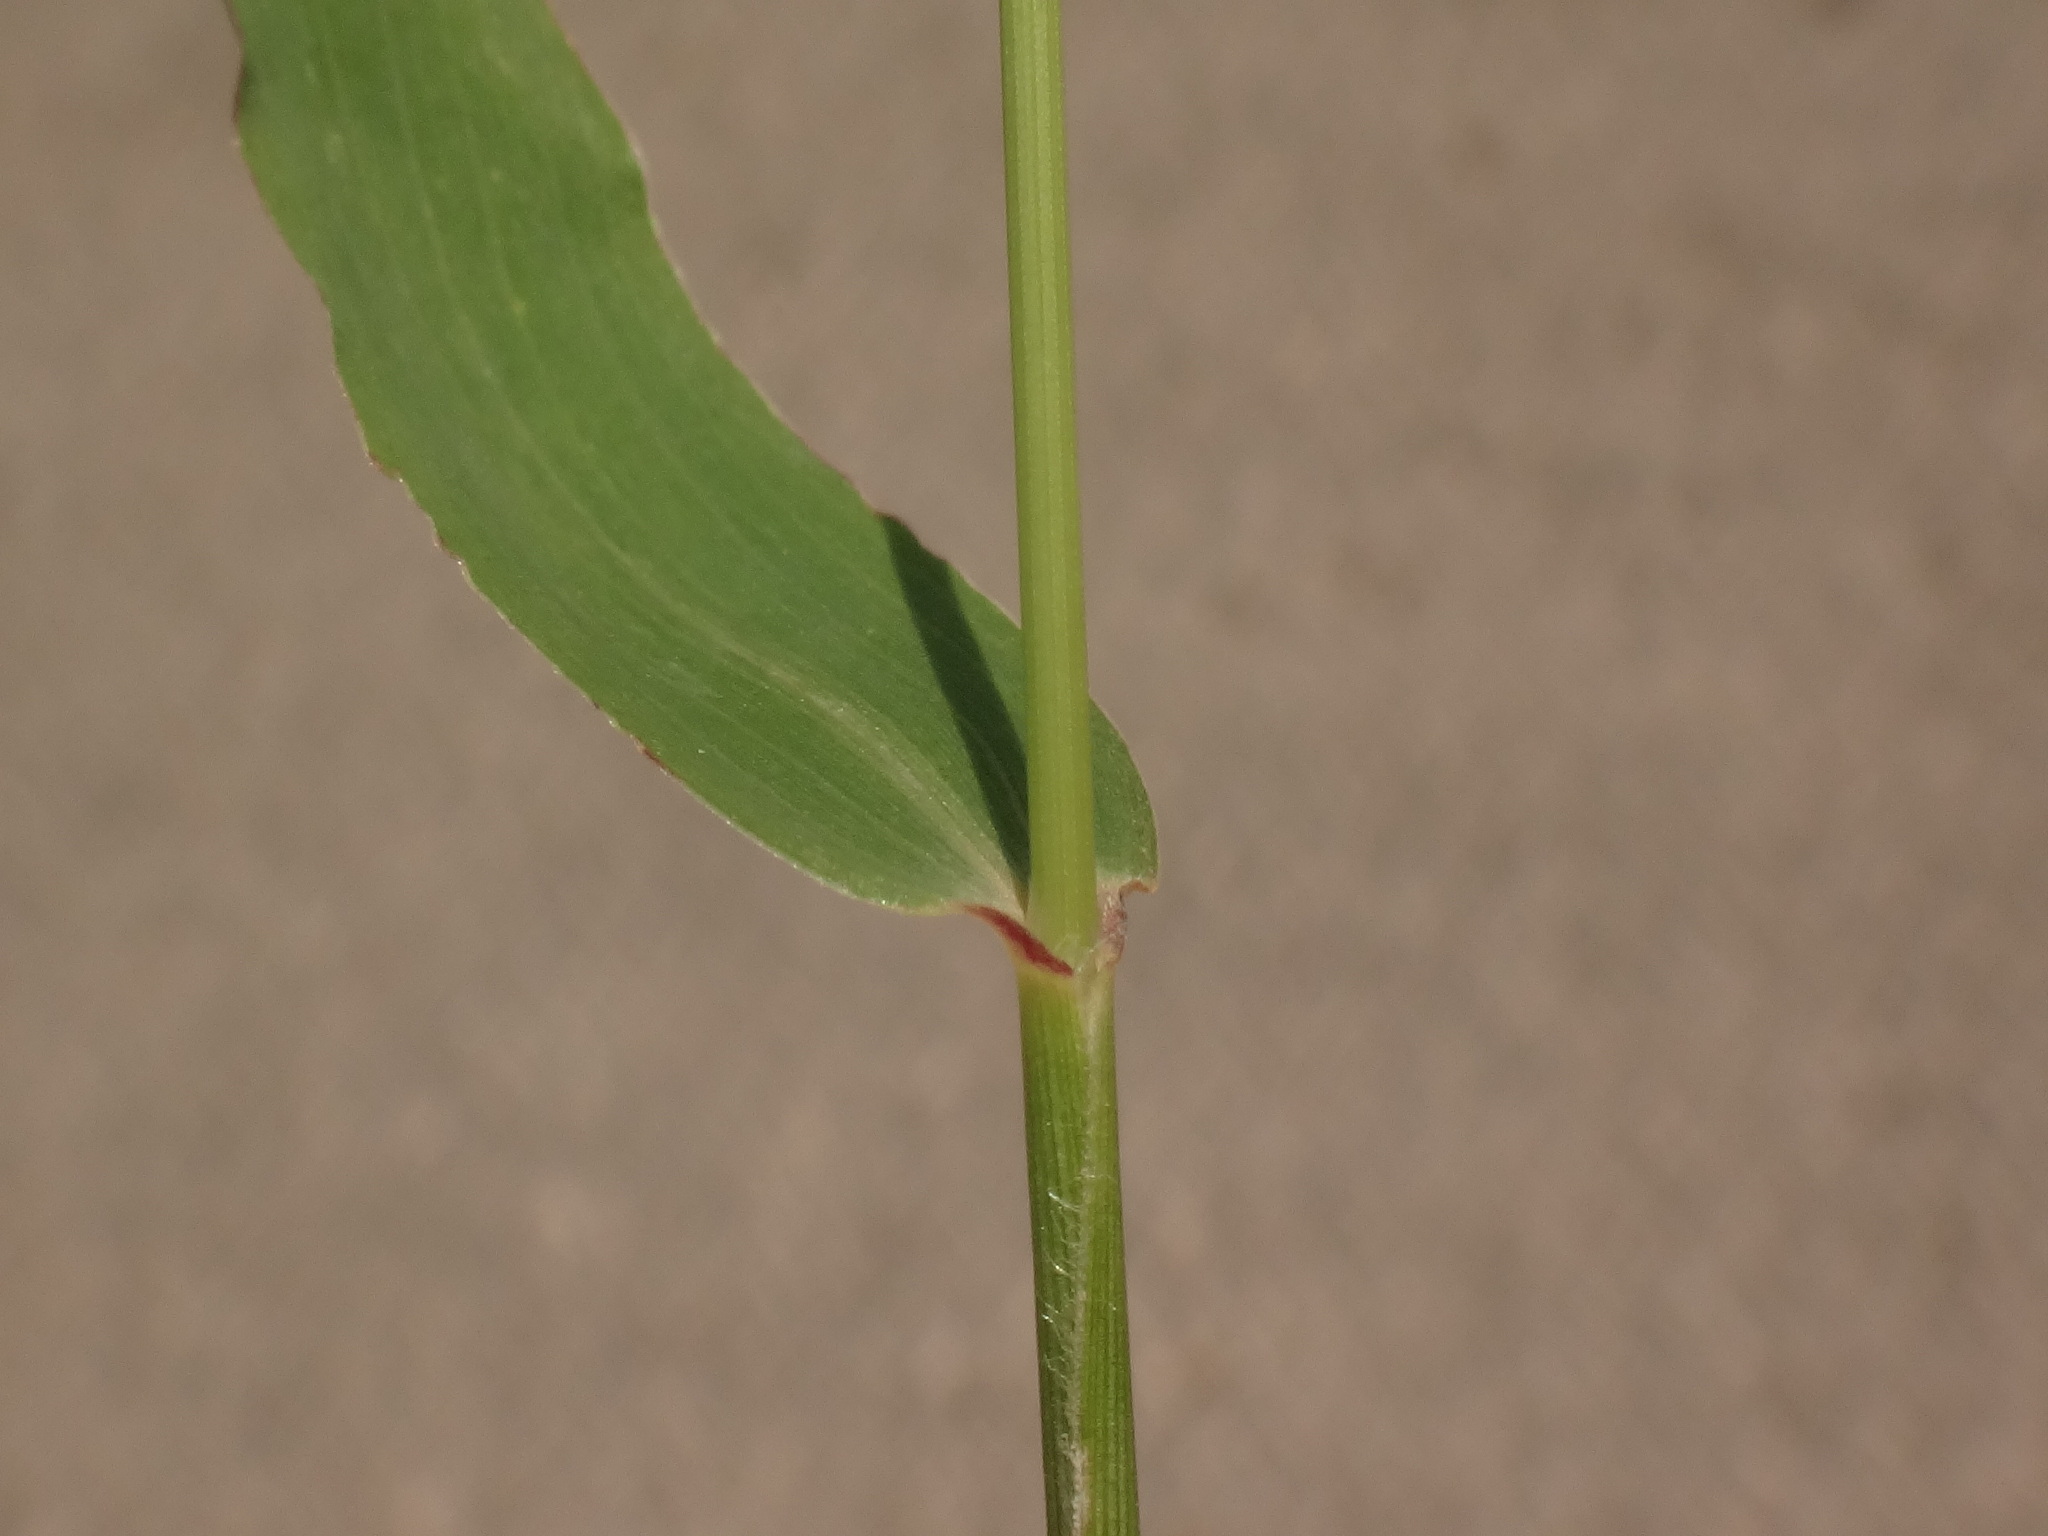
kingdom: Plantae
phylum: Tracheophyta
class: Liliopsida
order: Poales
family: Poaceae
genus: Setaria
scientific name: Setaria viridis
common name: Green bristlegrass
